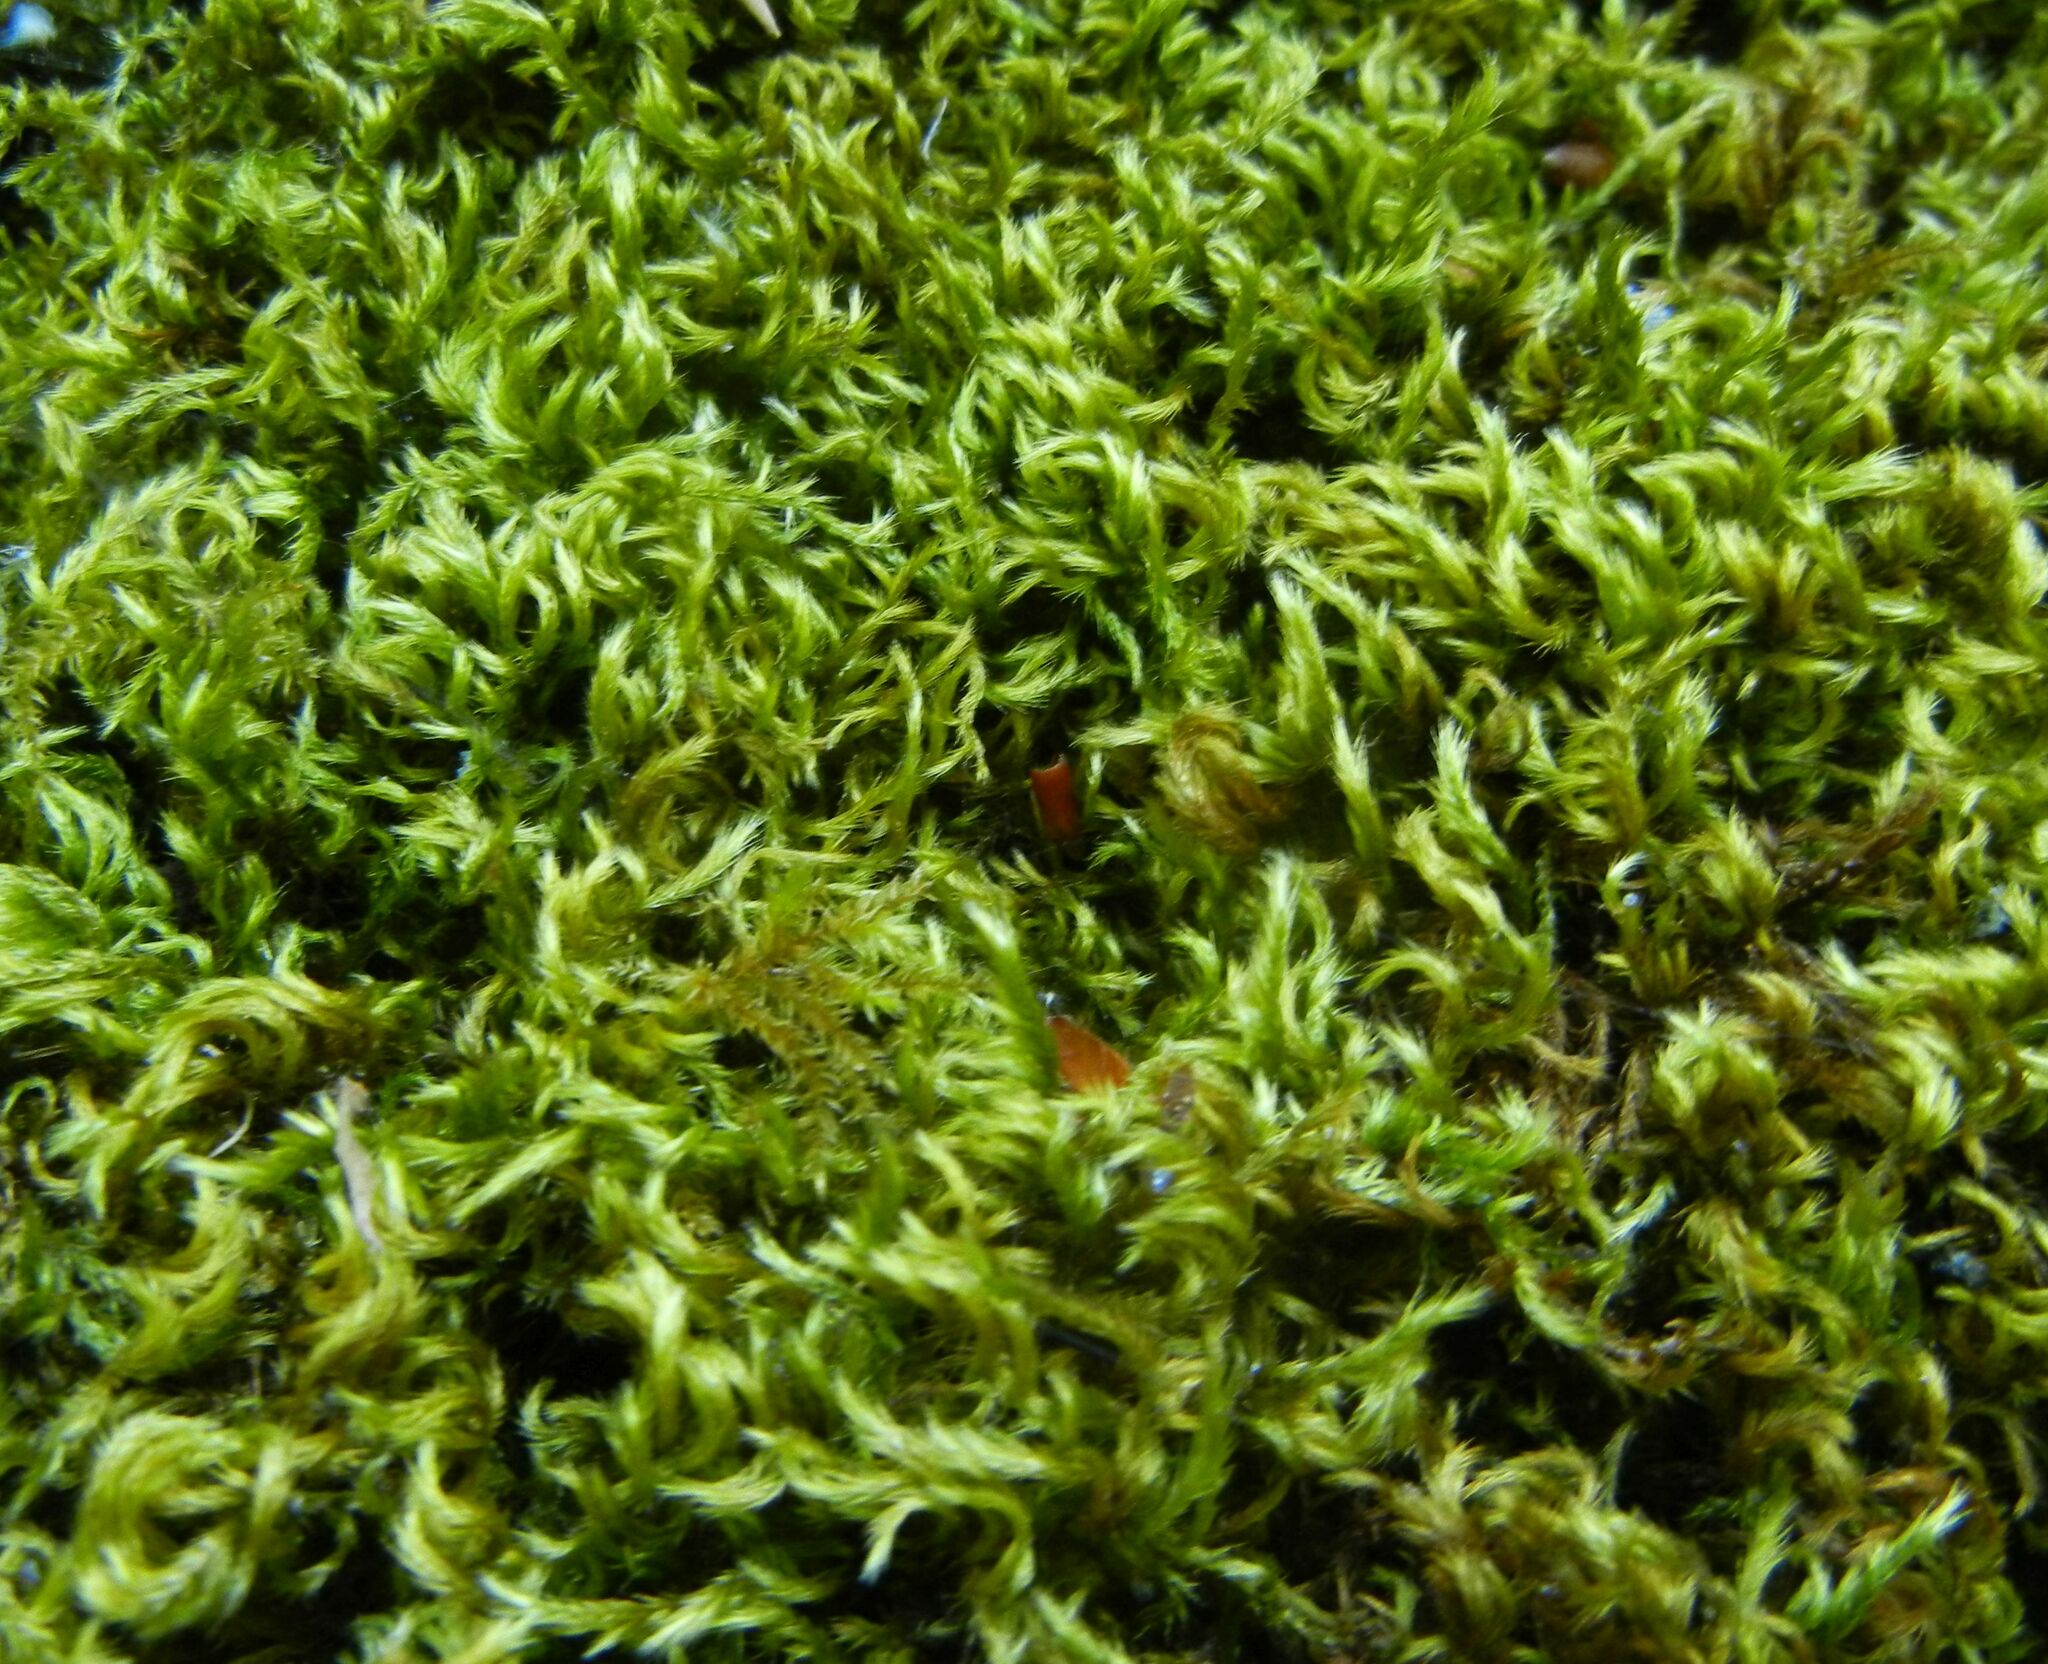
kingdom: Plantae
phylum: Bryophyta
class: Bryopsida
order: Hypnales
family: Brachytheciaceae
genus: Homalothecium
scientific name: Homalothecium sericeum
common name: Silky wall feather-moss
